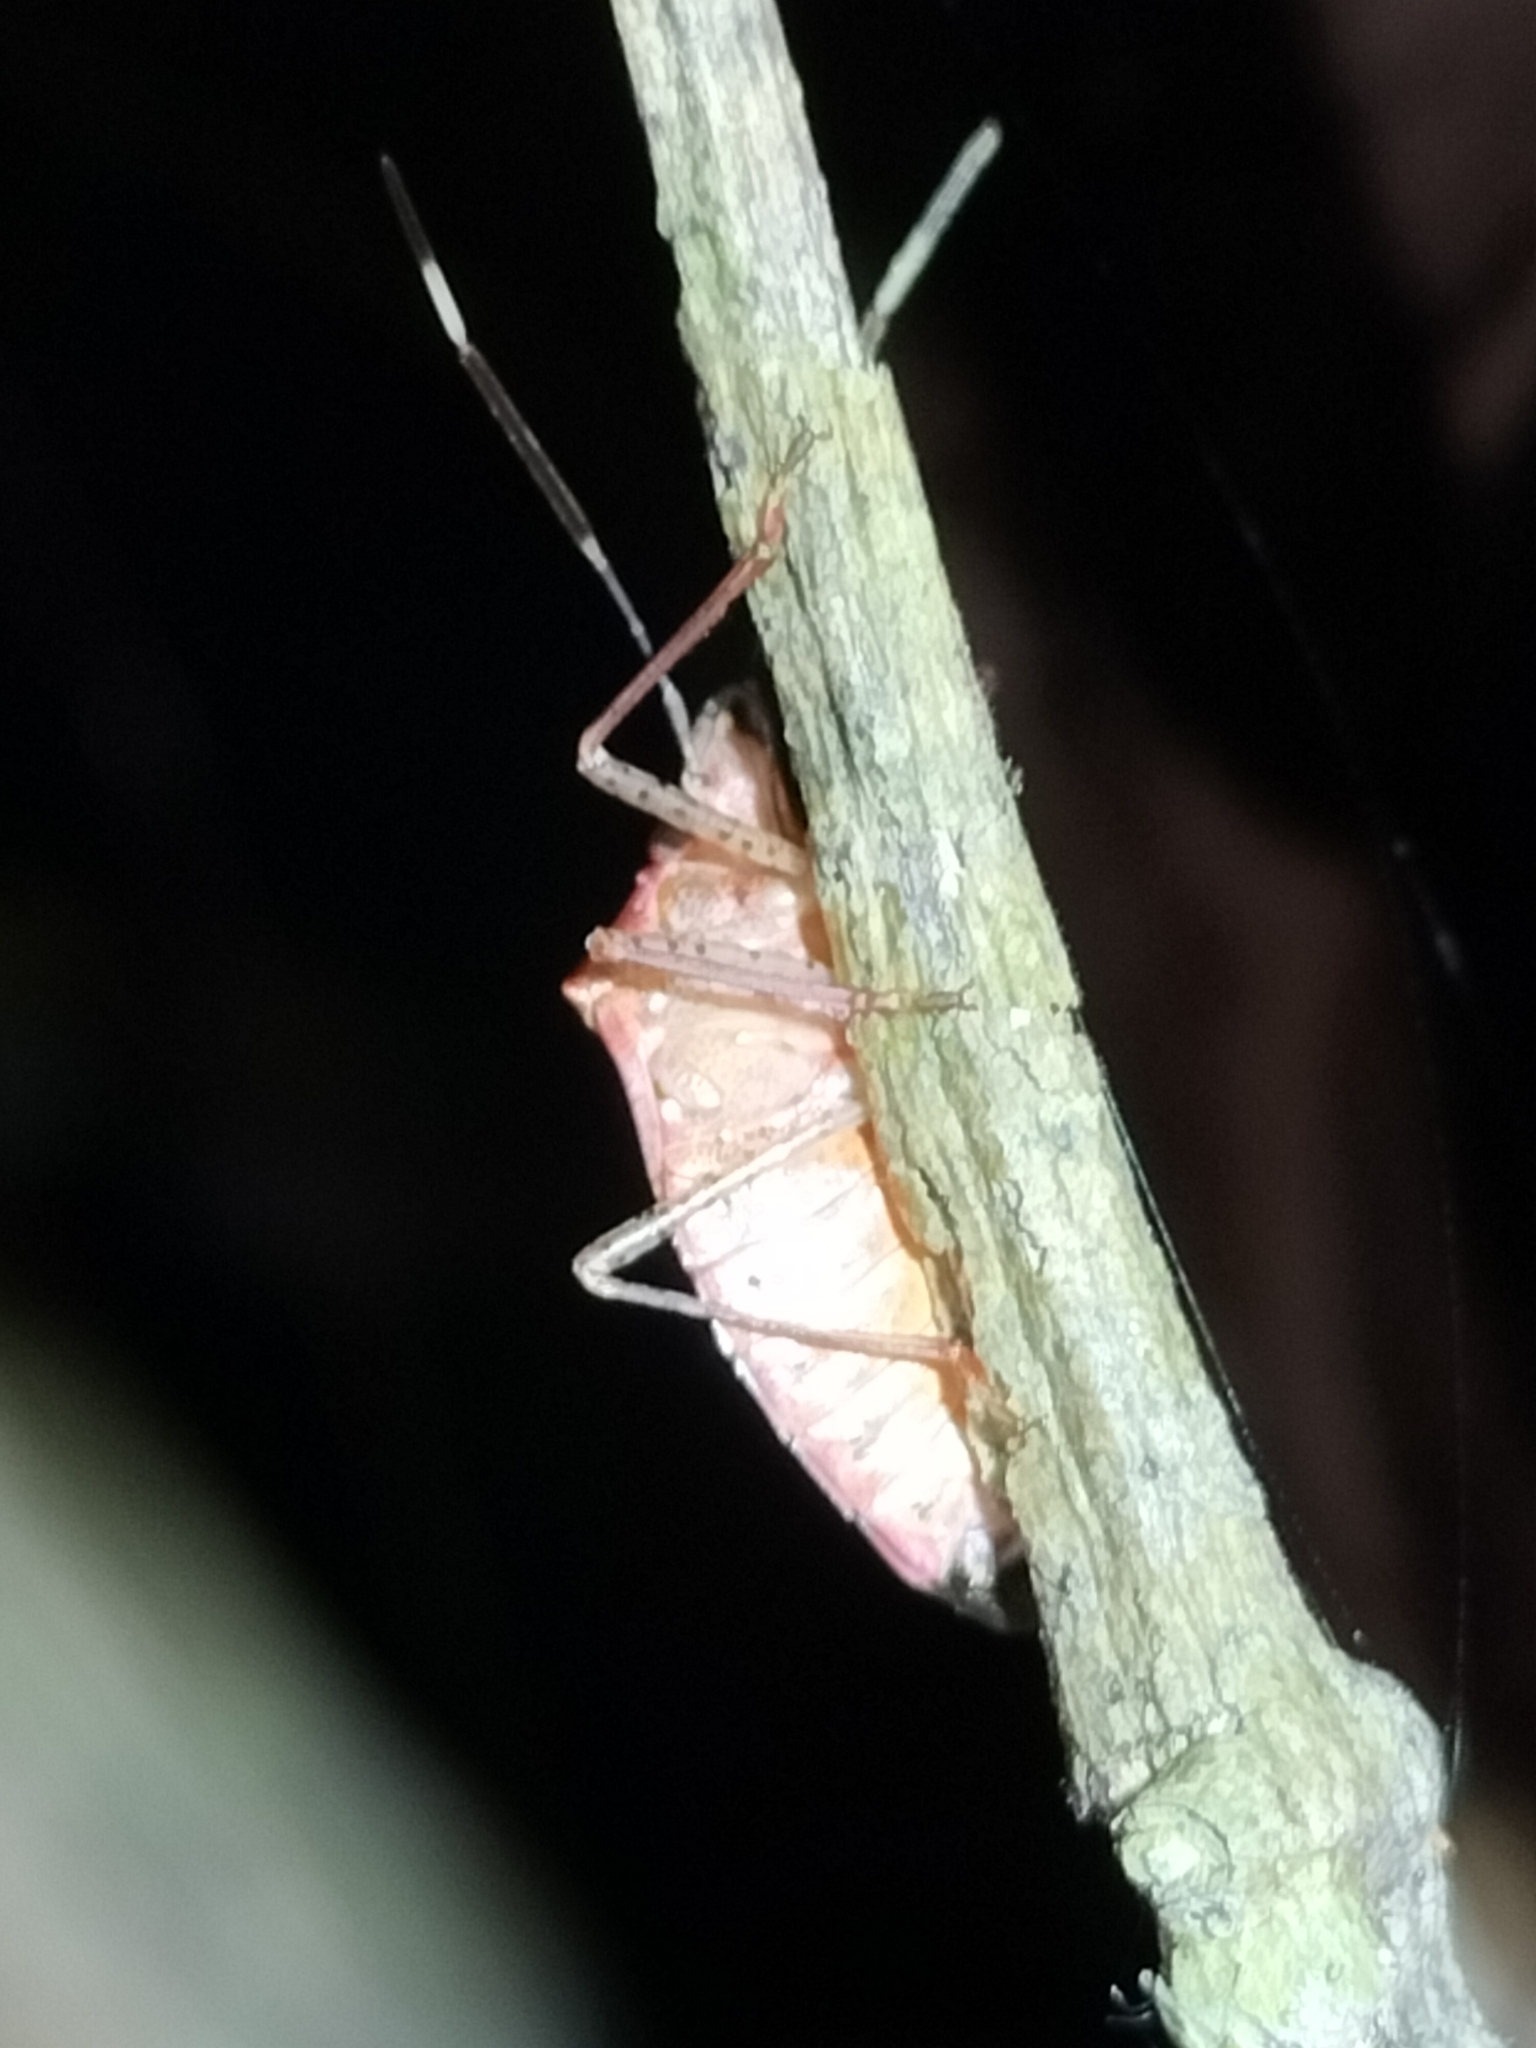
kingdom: Animalia
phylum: Arthropoda
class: Insecta
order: Hemiptera
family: Pentatomidae
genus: Munduala
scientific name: Munduala
